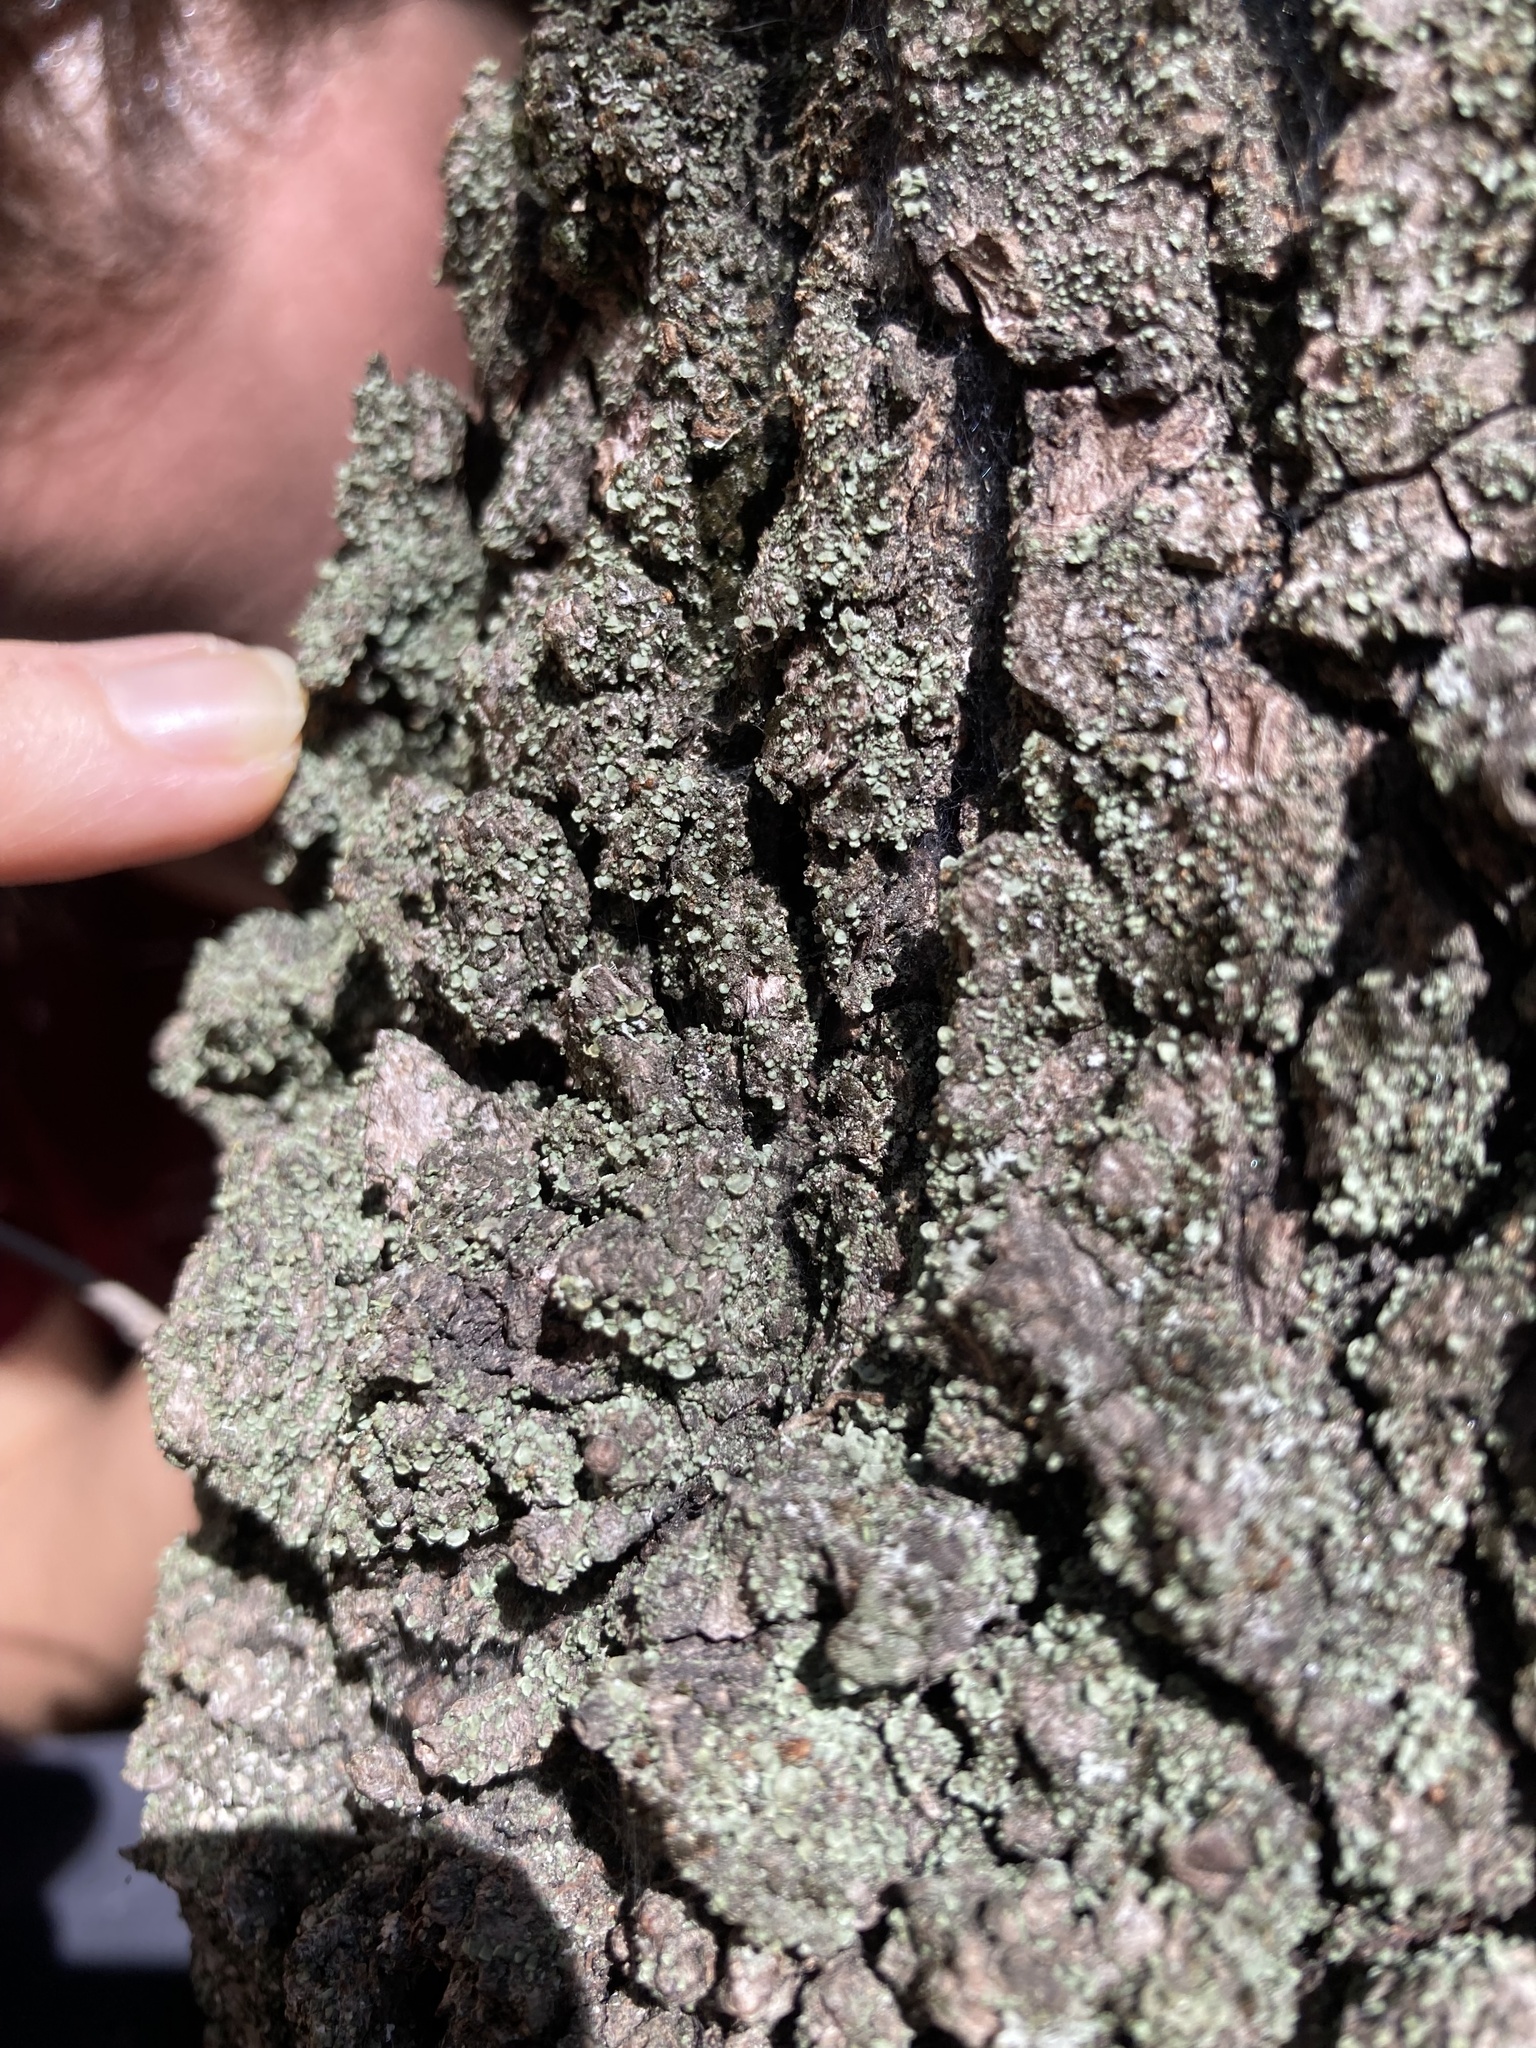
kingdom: Fungi
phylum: Ascomycota
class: Lecanoromycetes
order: Umbilicariales
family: Ophioparmaceae
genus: Hypocenomyce
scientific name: Hypocenomyce stoechadiana
